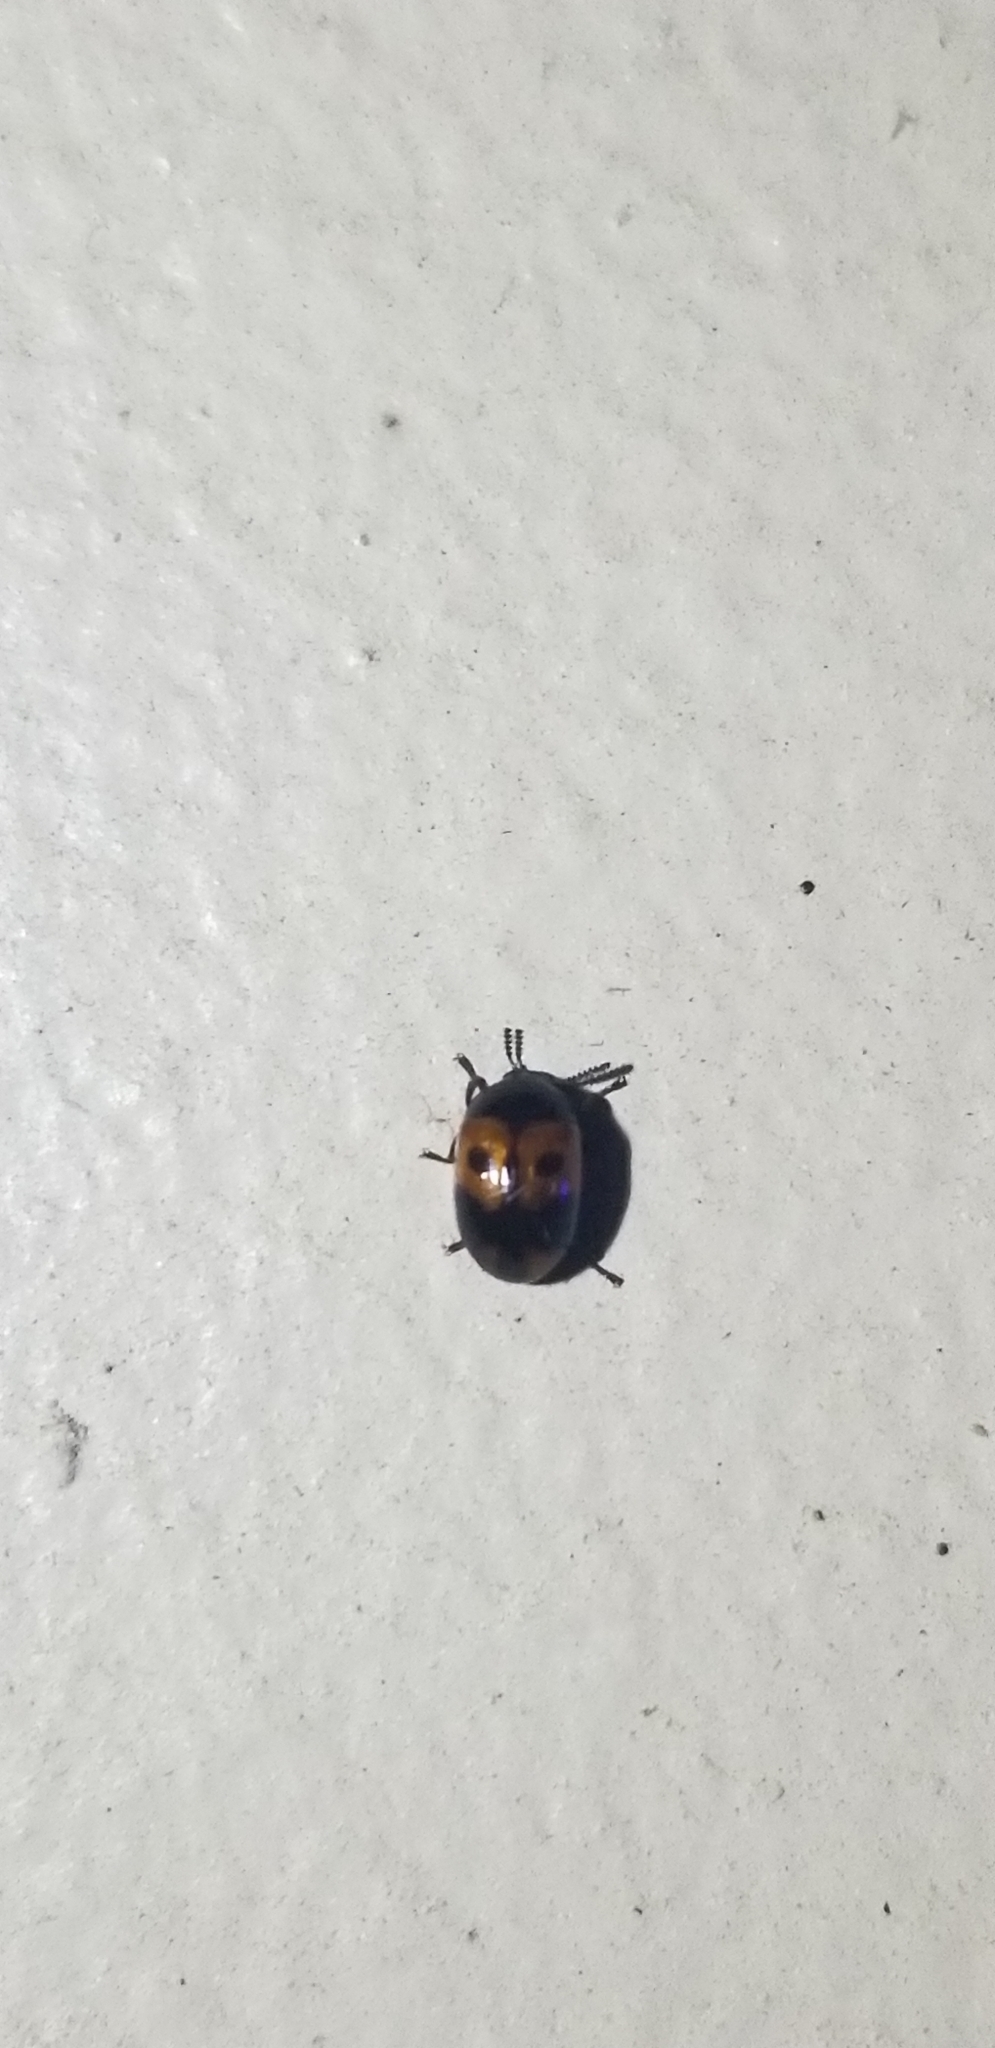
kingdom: Animalia
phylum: Arthropoda
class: Insecta
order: Coleoptera
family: Tenebrionidae
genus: Diaperis
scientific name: Diaperis maculata
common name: Darkling beetle
